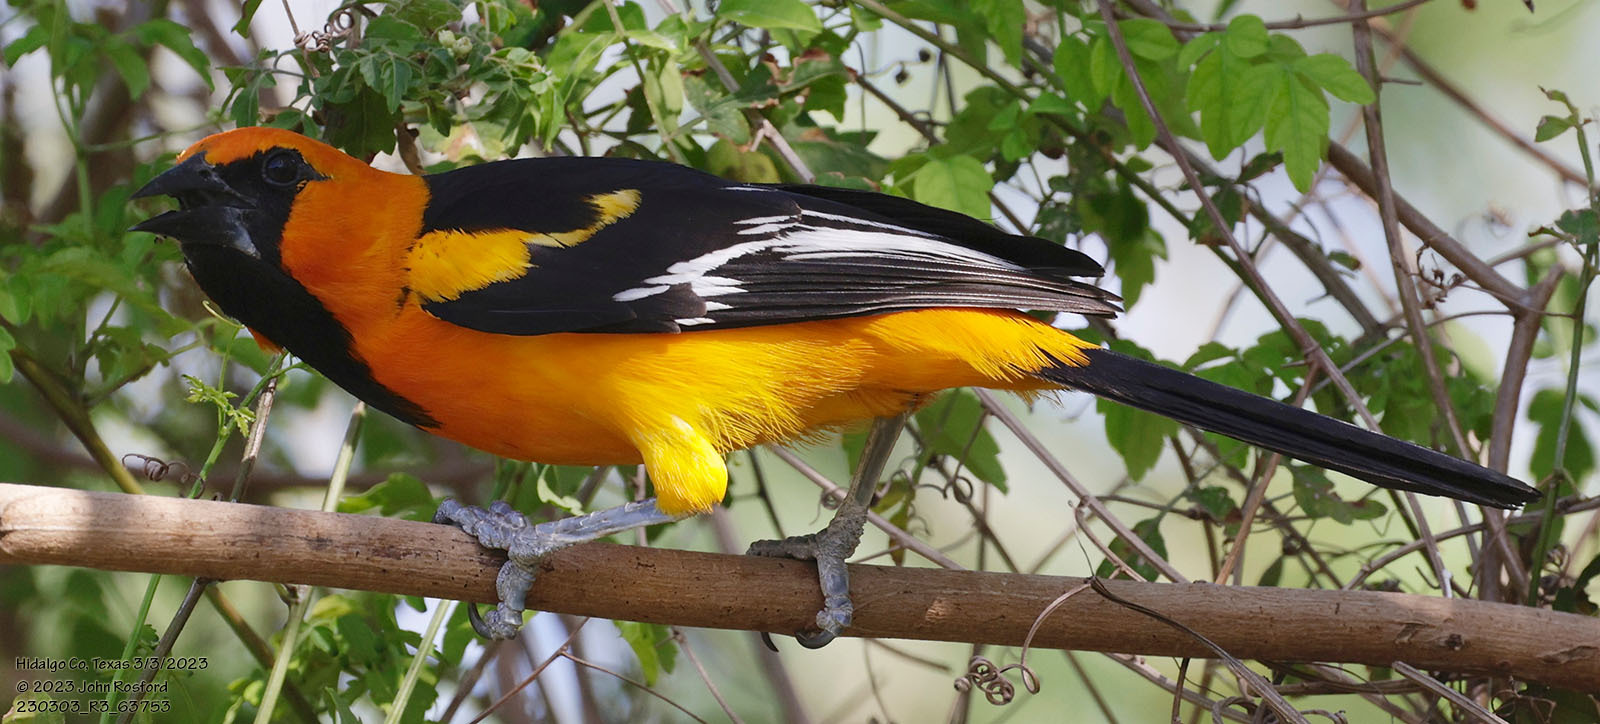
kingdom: Animalia
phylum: Chordata
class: Aves
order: Passeriformes
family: Icteridae
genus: Icterus
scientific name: Icterus gularis
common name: Altamira oriole
